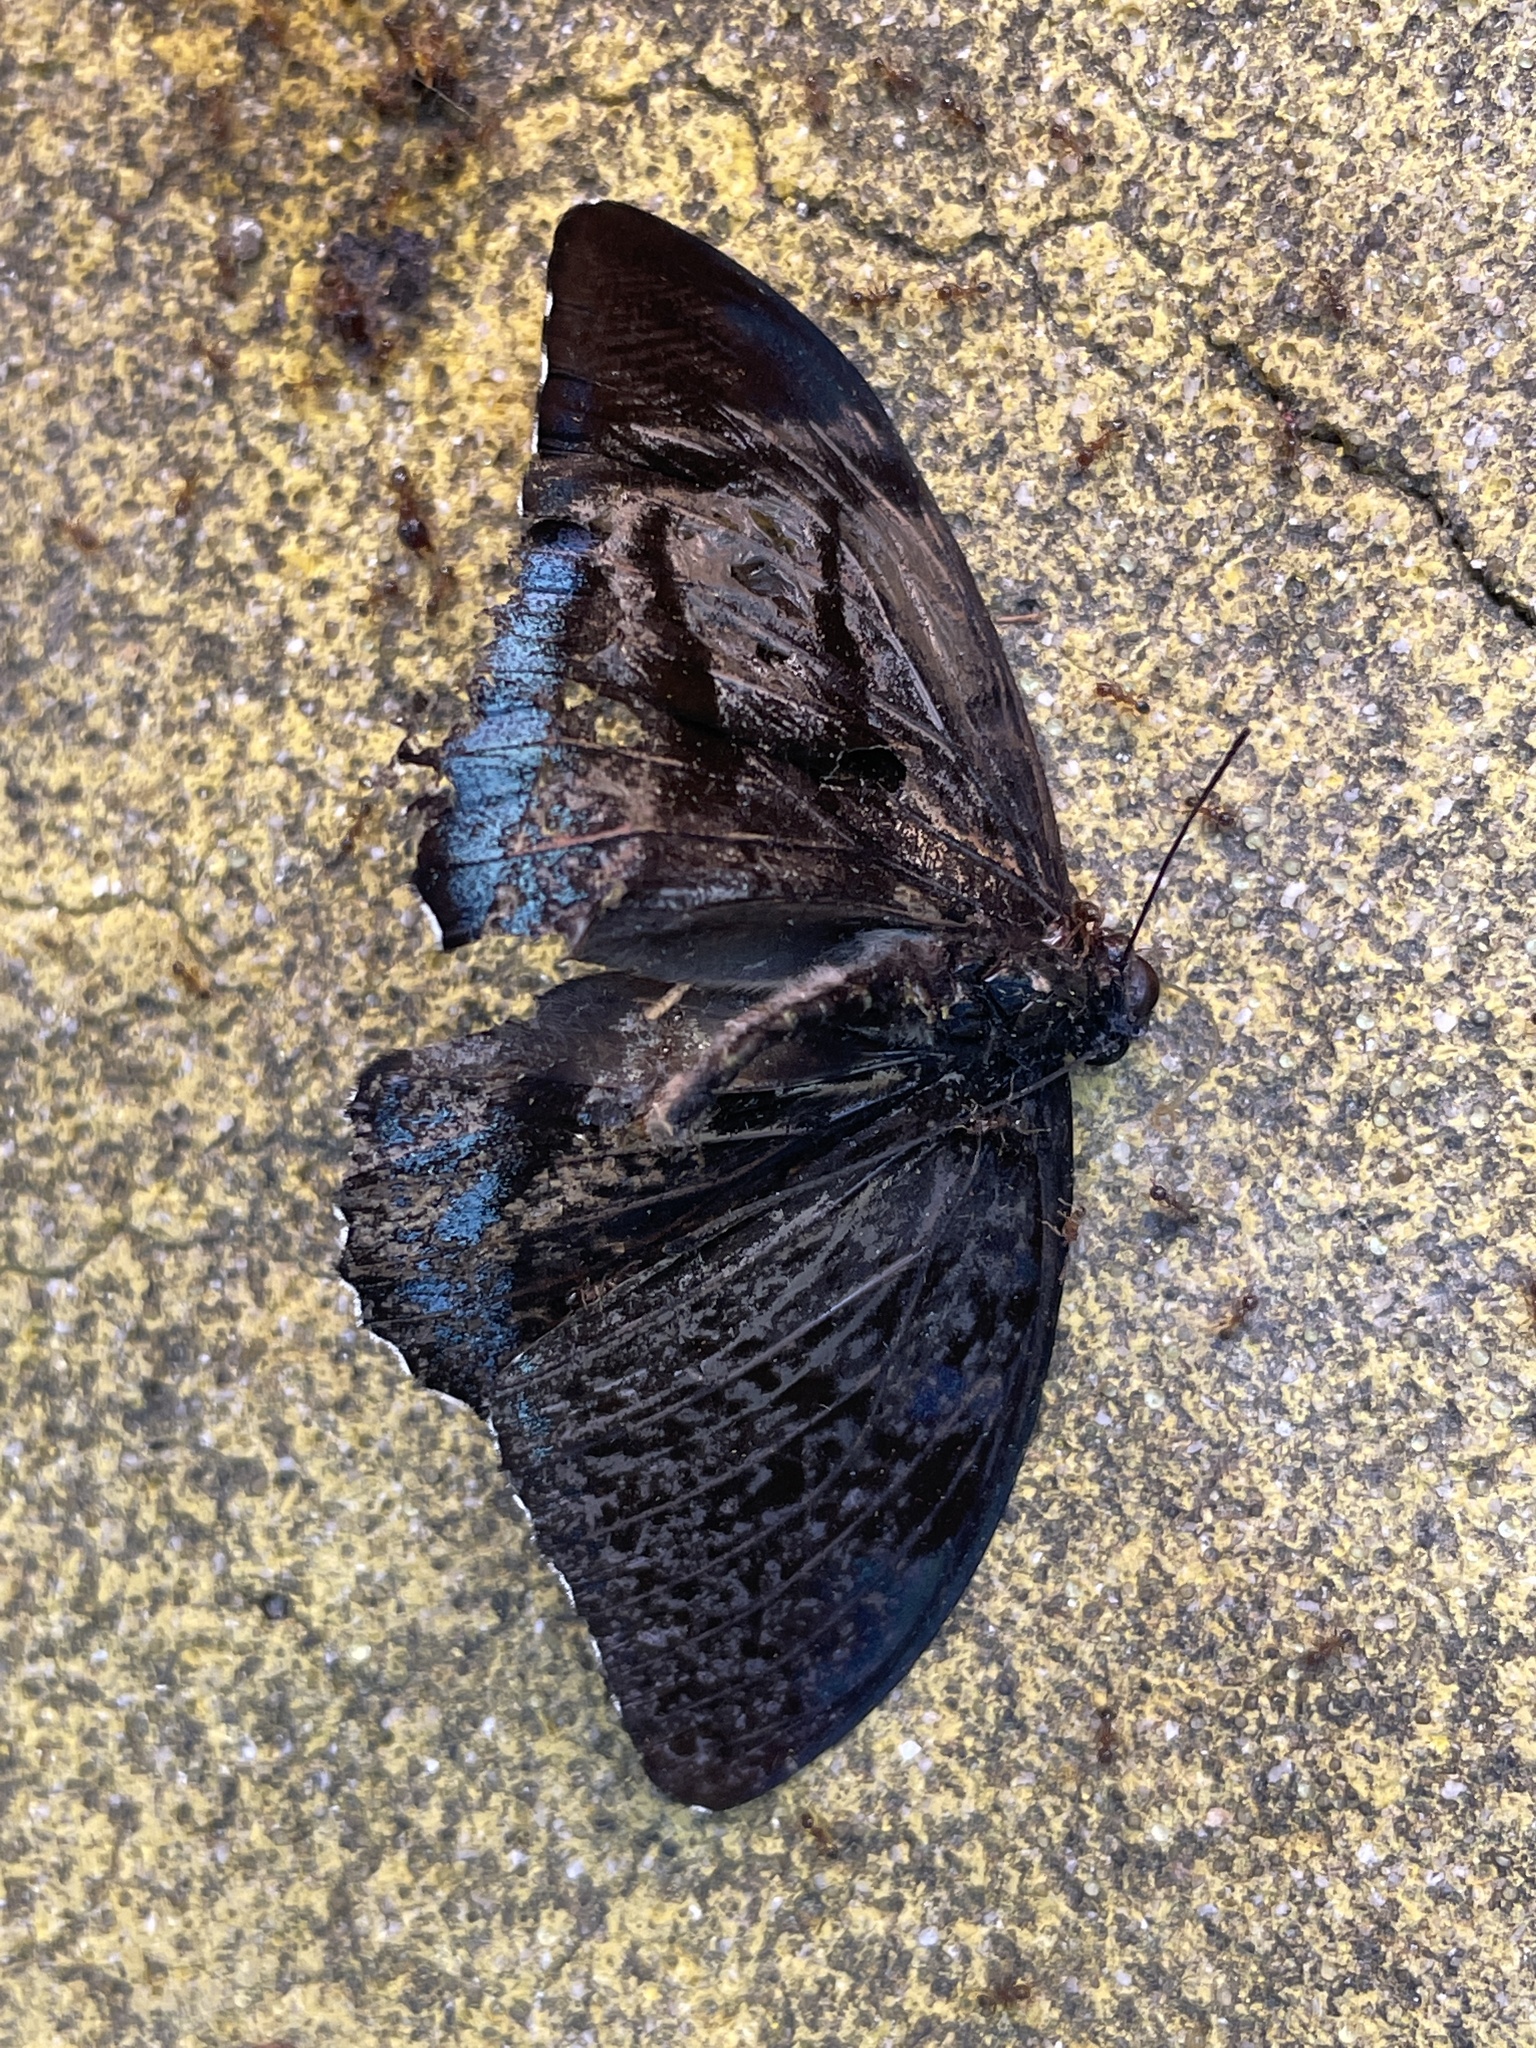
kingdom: Animalia
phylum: Arthropoda
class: Insecta
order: Lepidoptera
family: Nymphalidae
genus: Tanaecia
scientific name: Tanaecia
